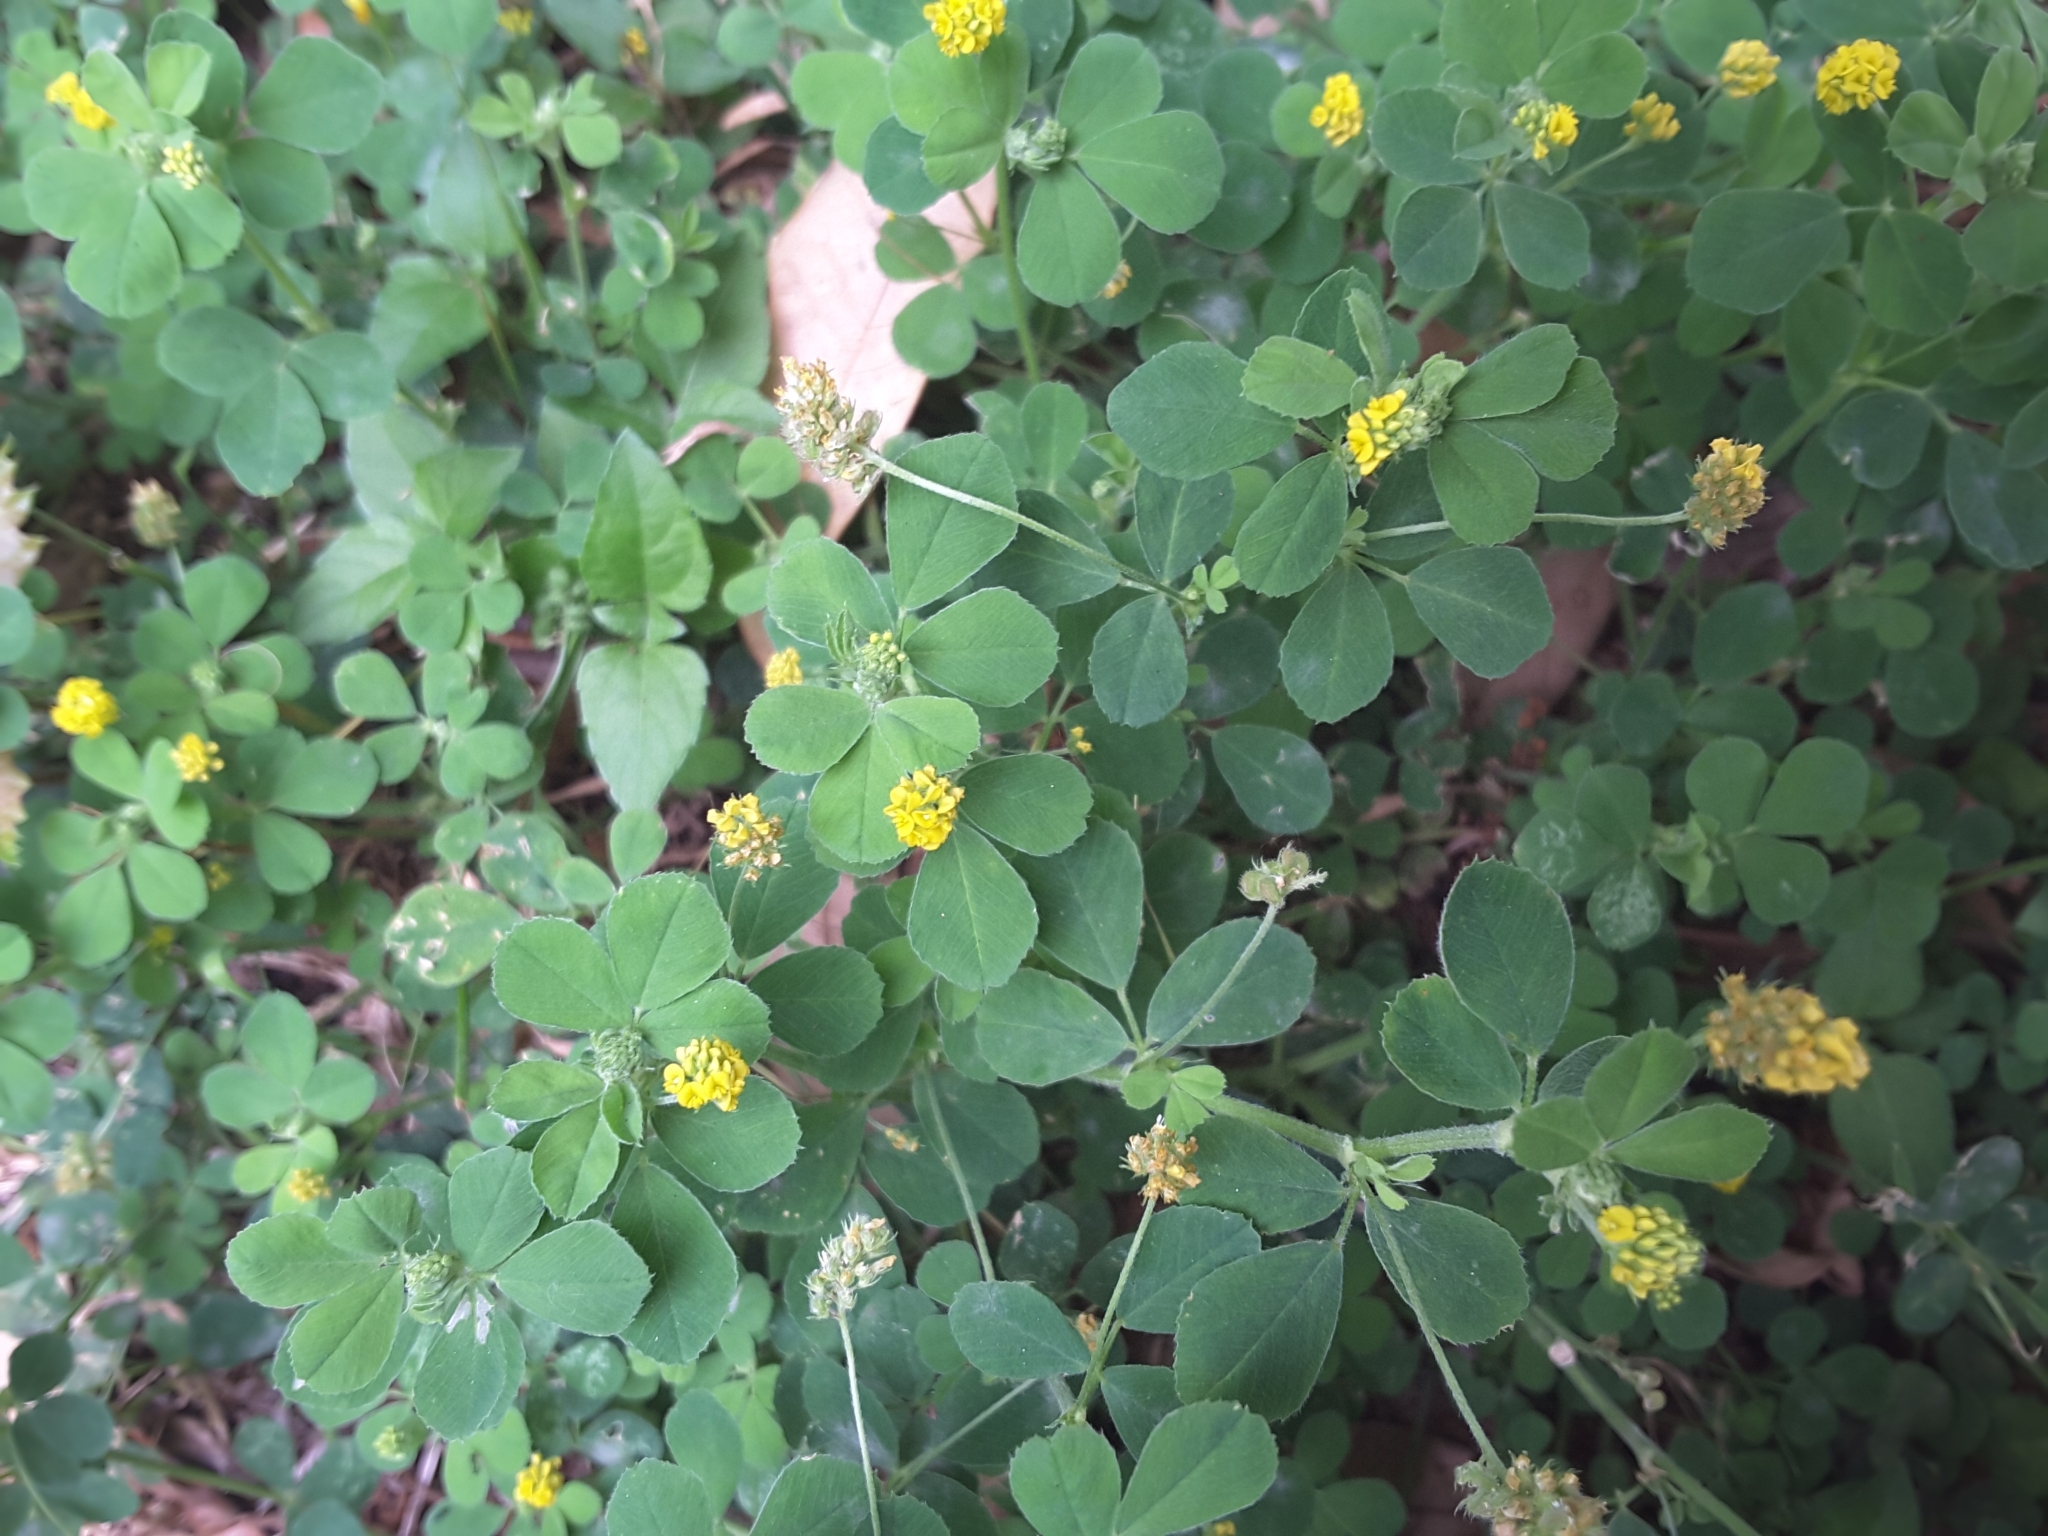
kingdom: Plantae
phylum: Tracheophyta
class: Magnoliopsida
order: Fabales
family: Fabaceae
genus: Medicago
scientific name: Medicago lupulina
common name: Black medick
